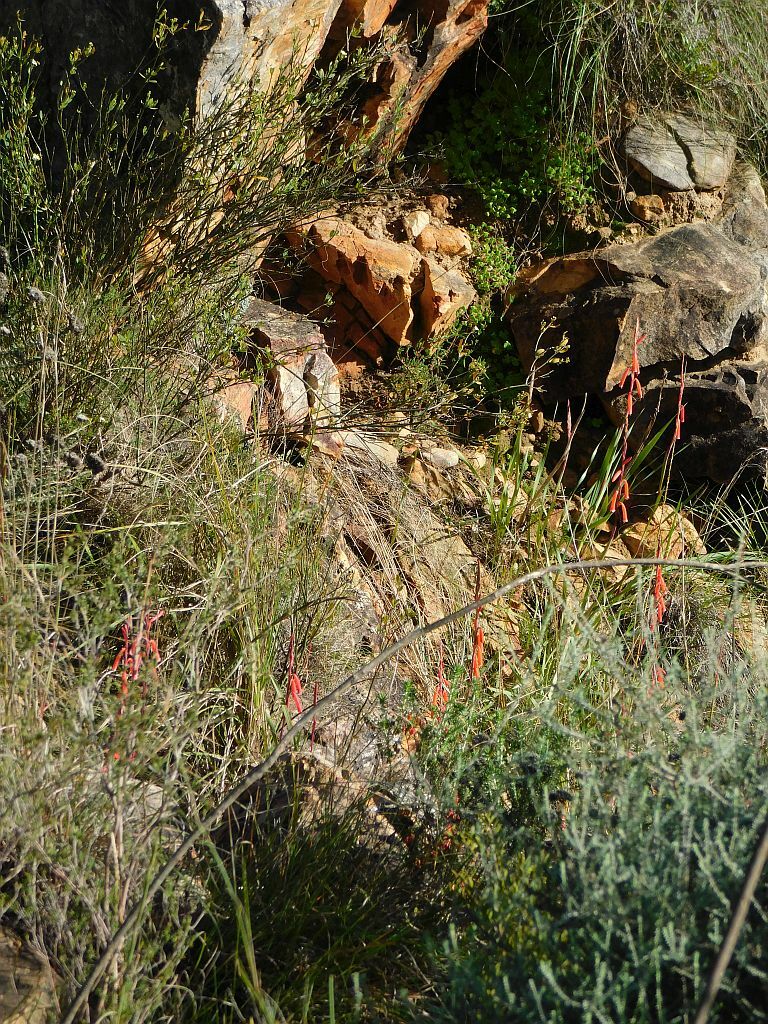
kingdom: Plantae
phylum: Tracheophyta
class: Liliopsida
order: Asparagales
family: Iridaceae
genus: Watsonia
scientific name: Watsonia aletroides
